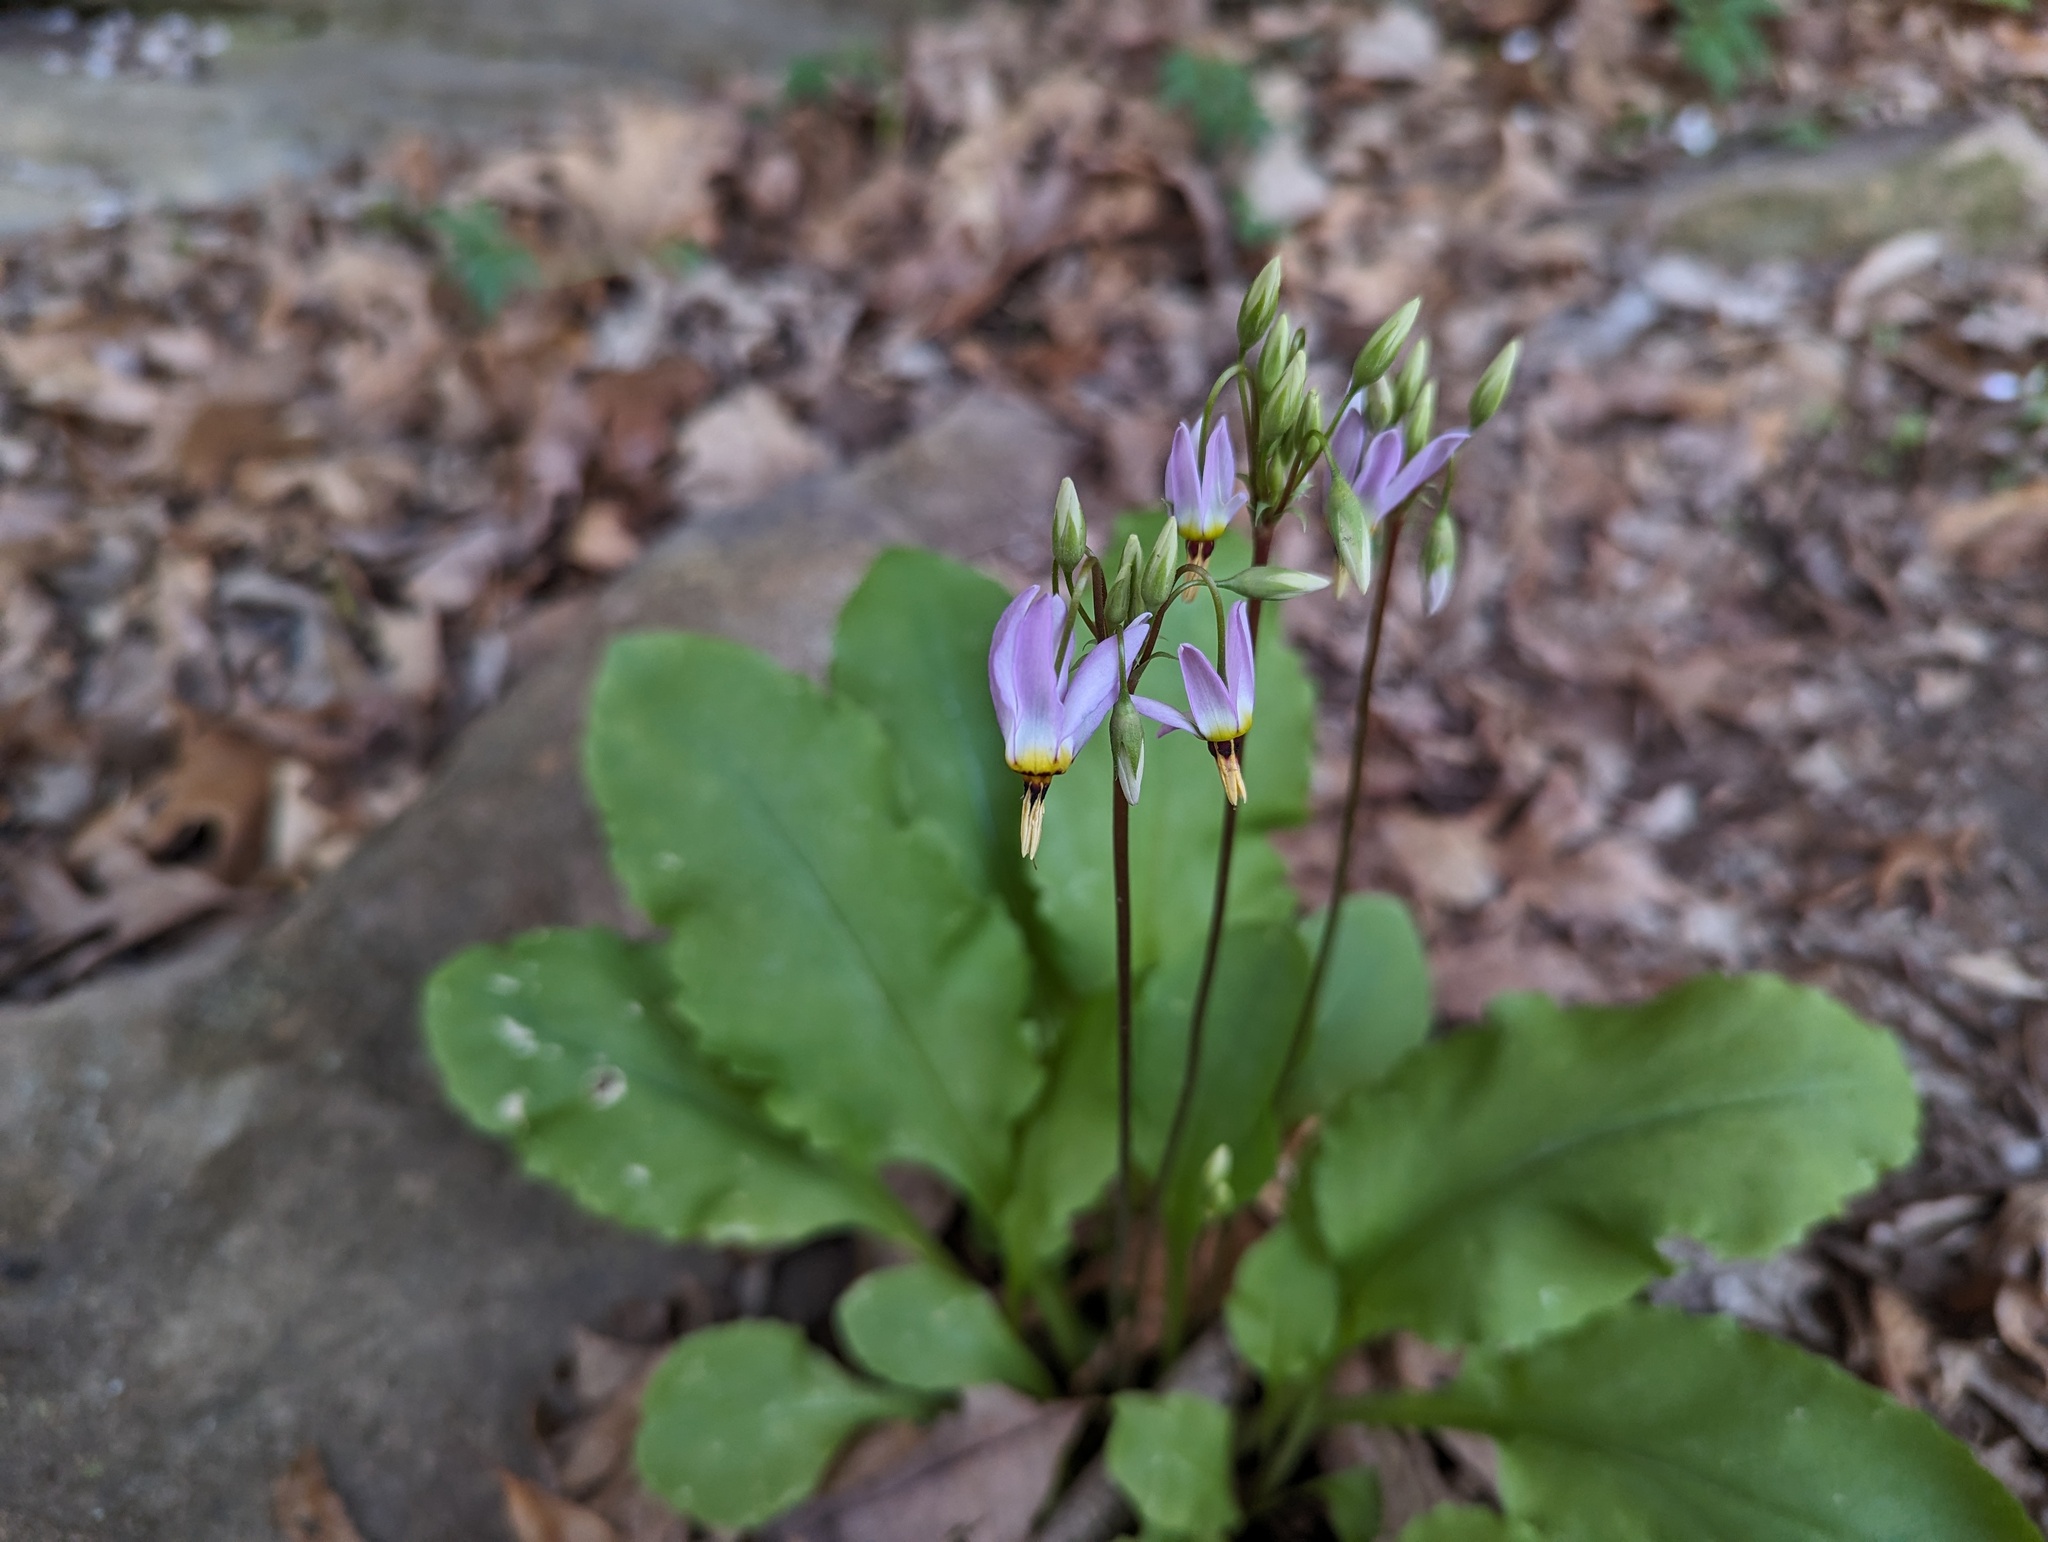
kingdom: Plantae
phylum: Tracheophyta
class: Magnoliopsida
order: Ericales
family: Primulaceae
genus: Dodecatheon
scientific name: Dodecatheon frenchii
